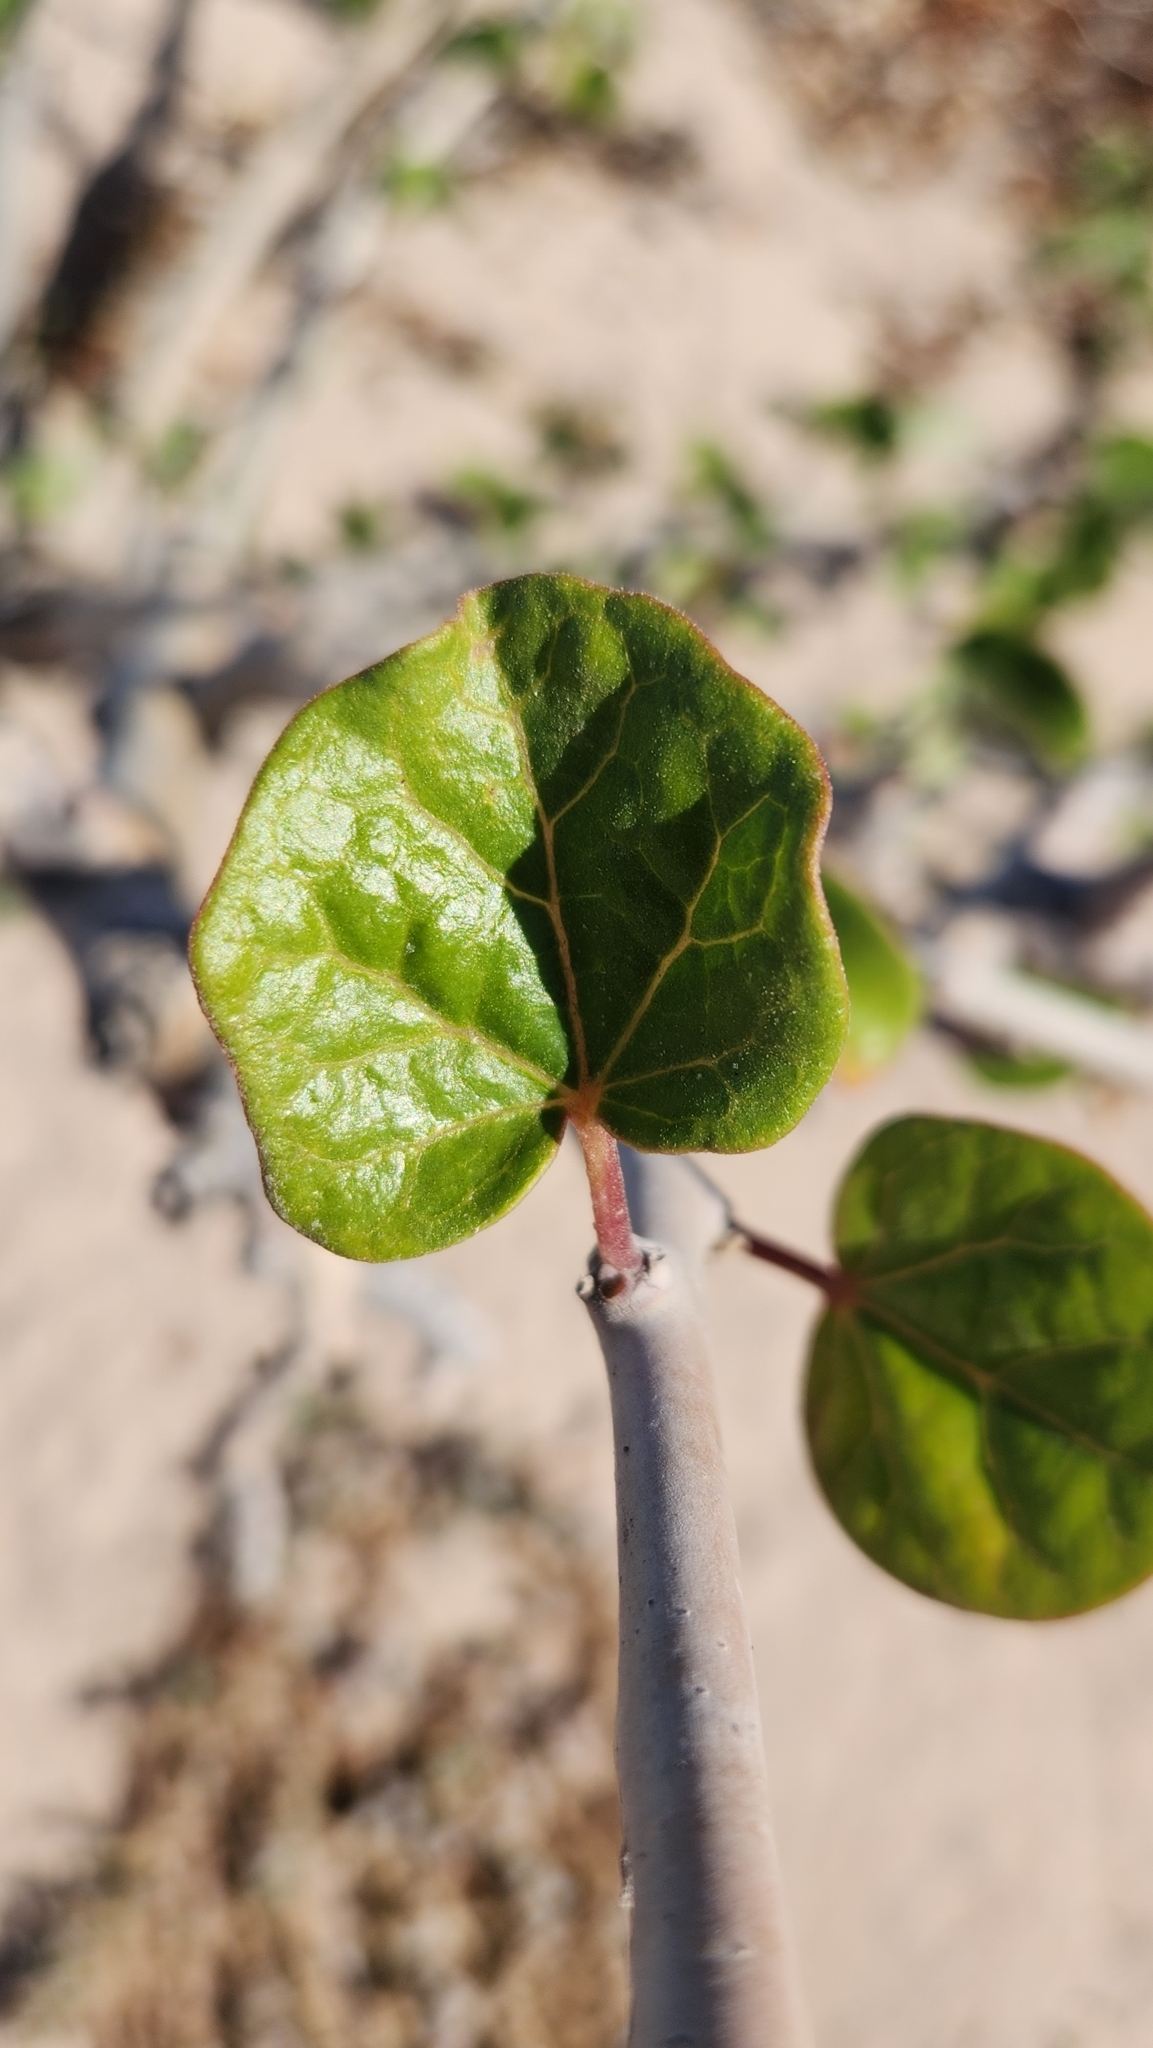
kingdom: Plantae
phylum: Tracheophyta
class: Magnoliopsida
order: Malpighiales
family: Euphorbiaceae
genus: Jatropha
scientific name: Jatropha cinerea
